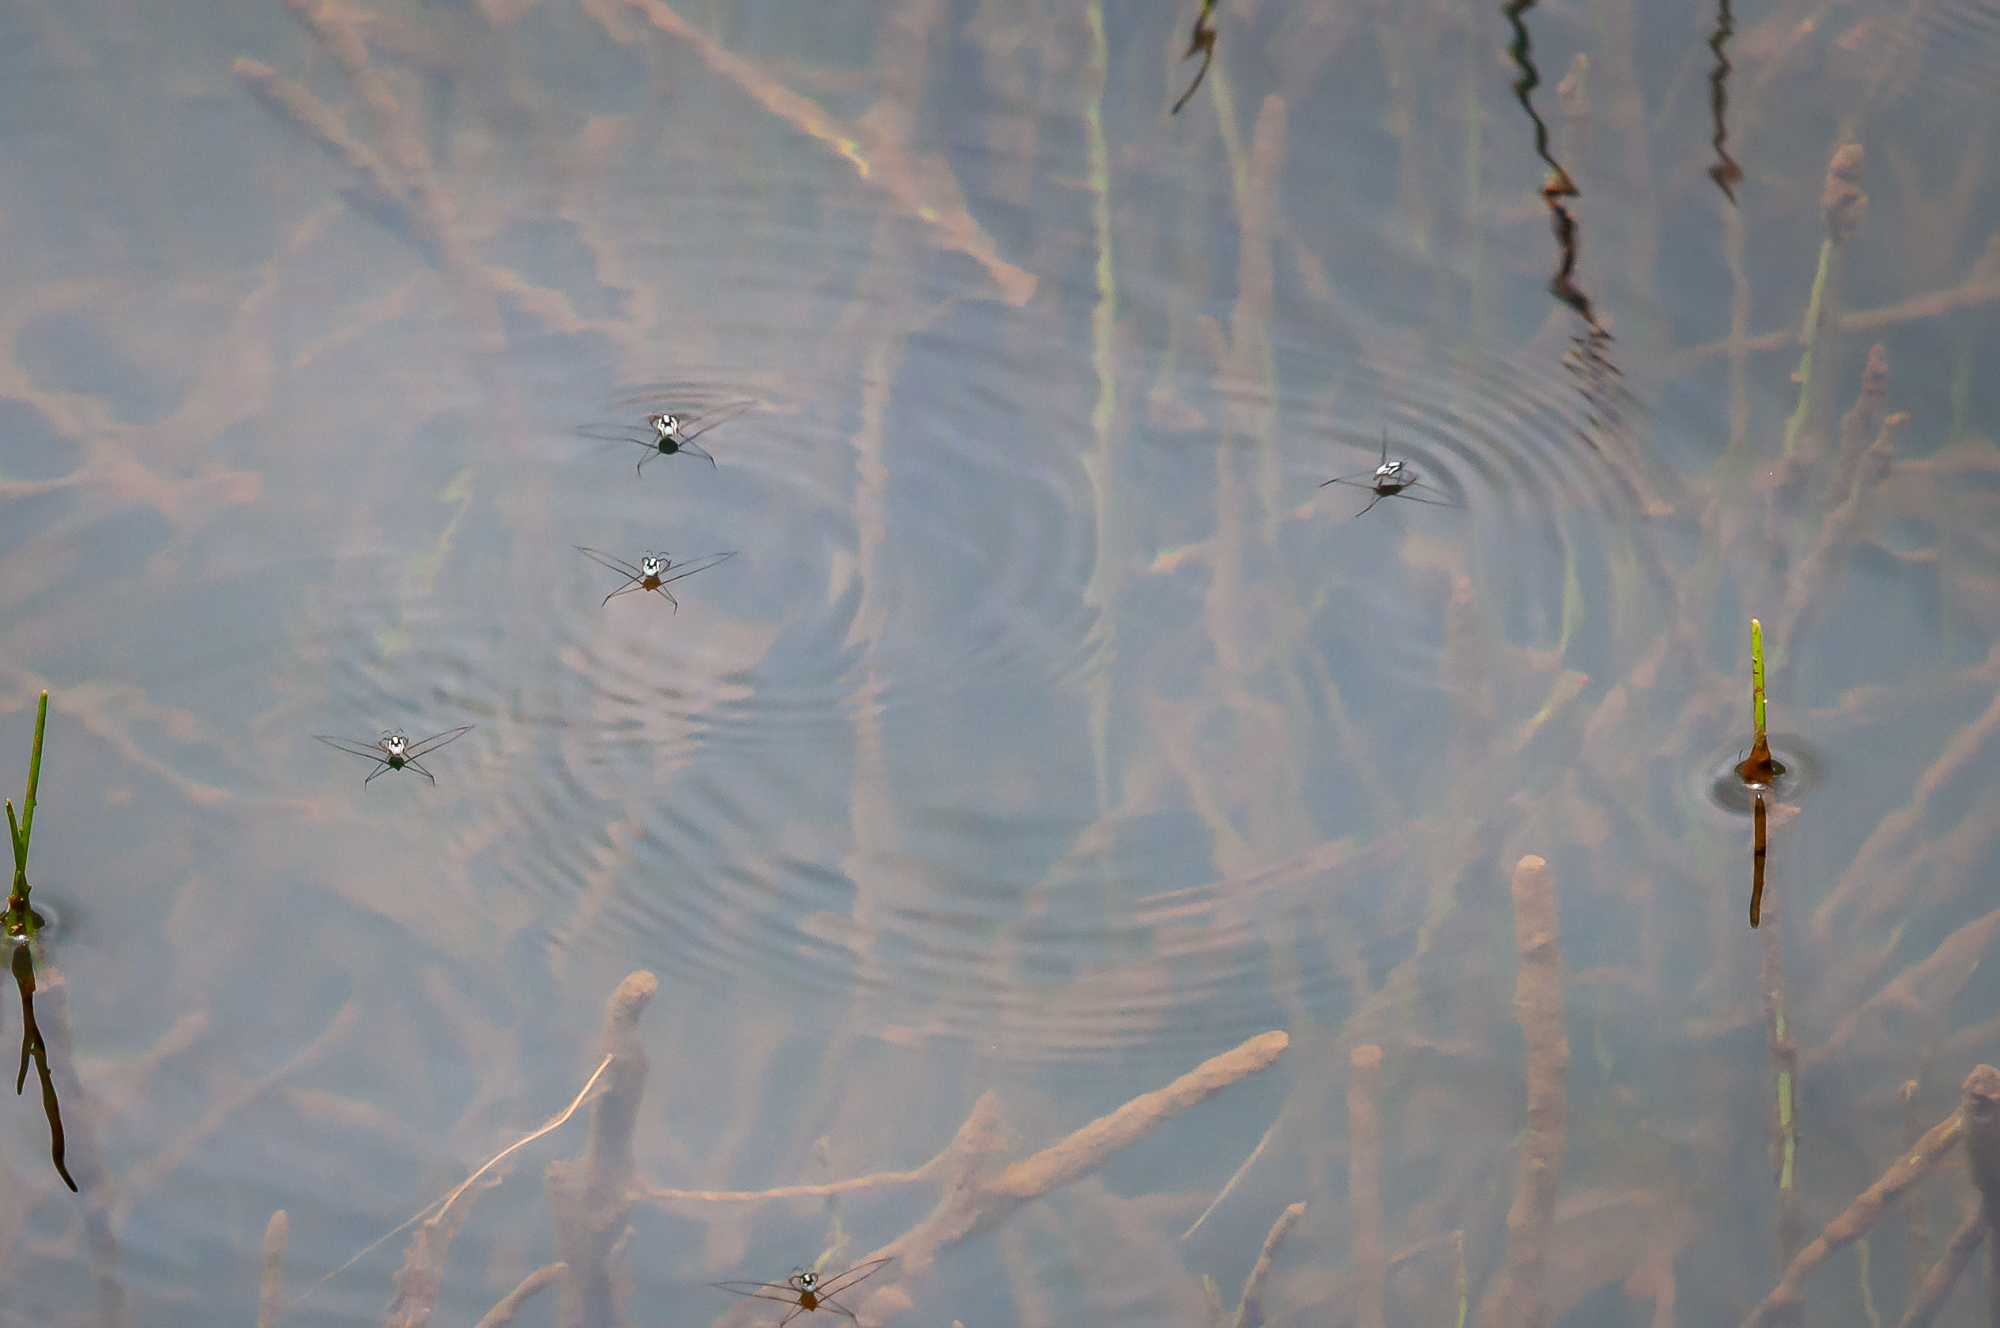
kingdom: Animalia
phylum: Arthropoda
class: Insecta
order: Hemiptera
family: Gerridae
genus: Metrobates
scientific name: Metrobates
